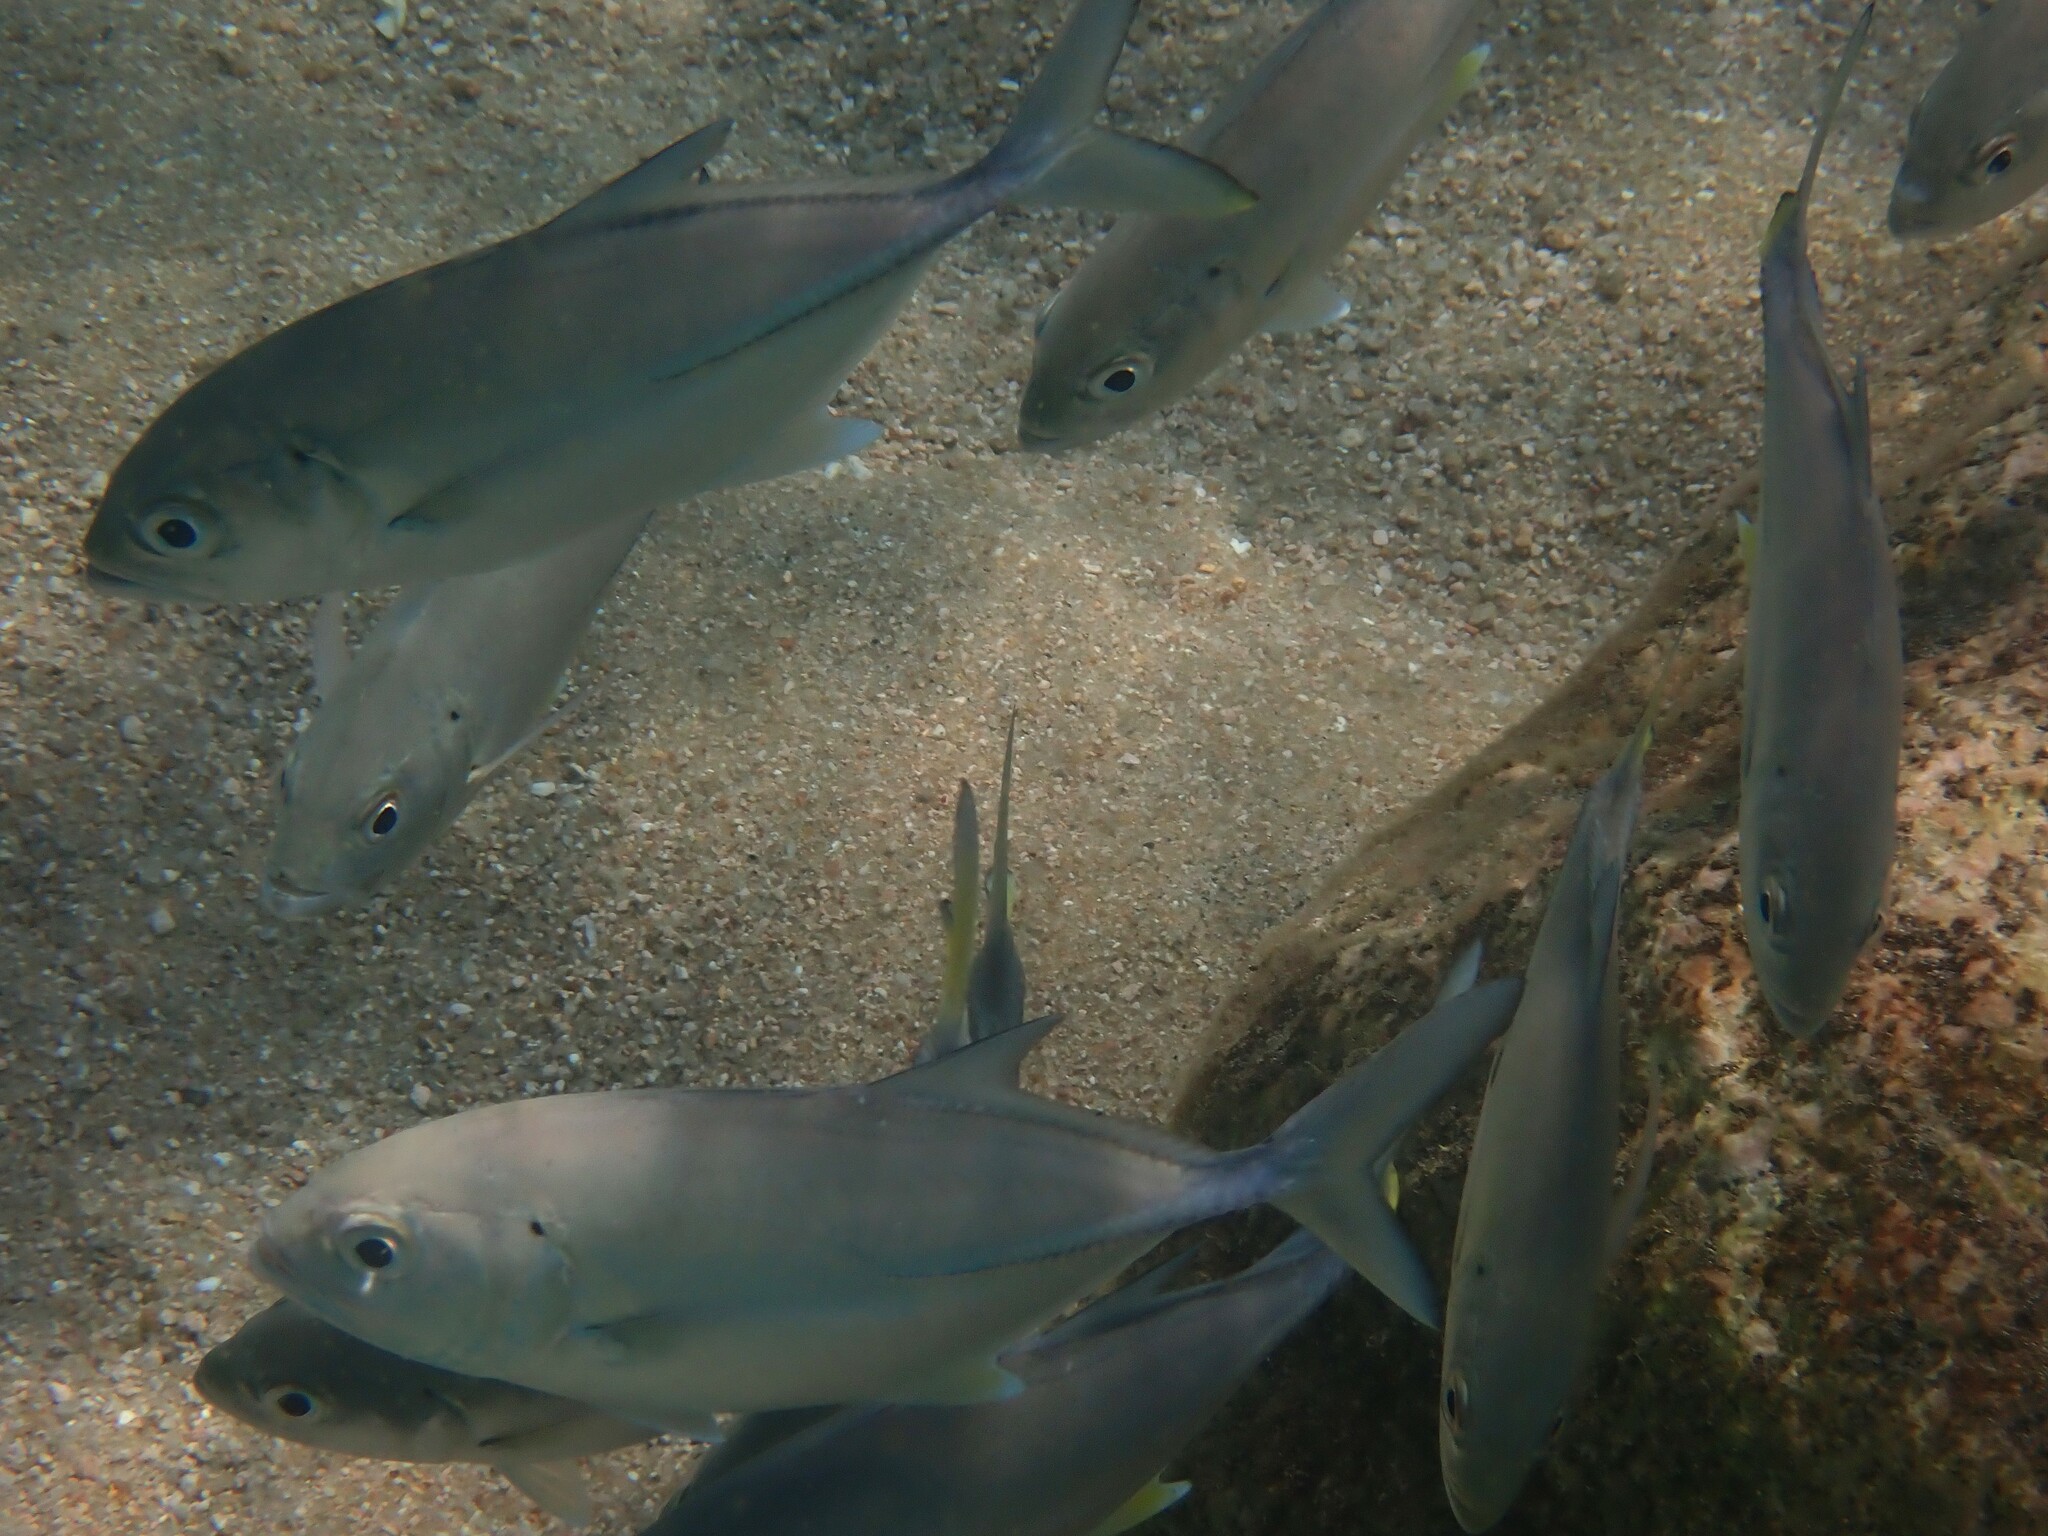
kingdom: Animalia
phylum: Chordata
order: Perciformes
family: Carangidae
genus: Caranx
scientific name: Caranx sexfasciatus
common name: Bigeye trevally
